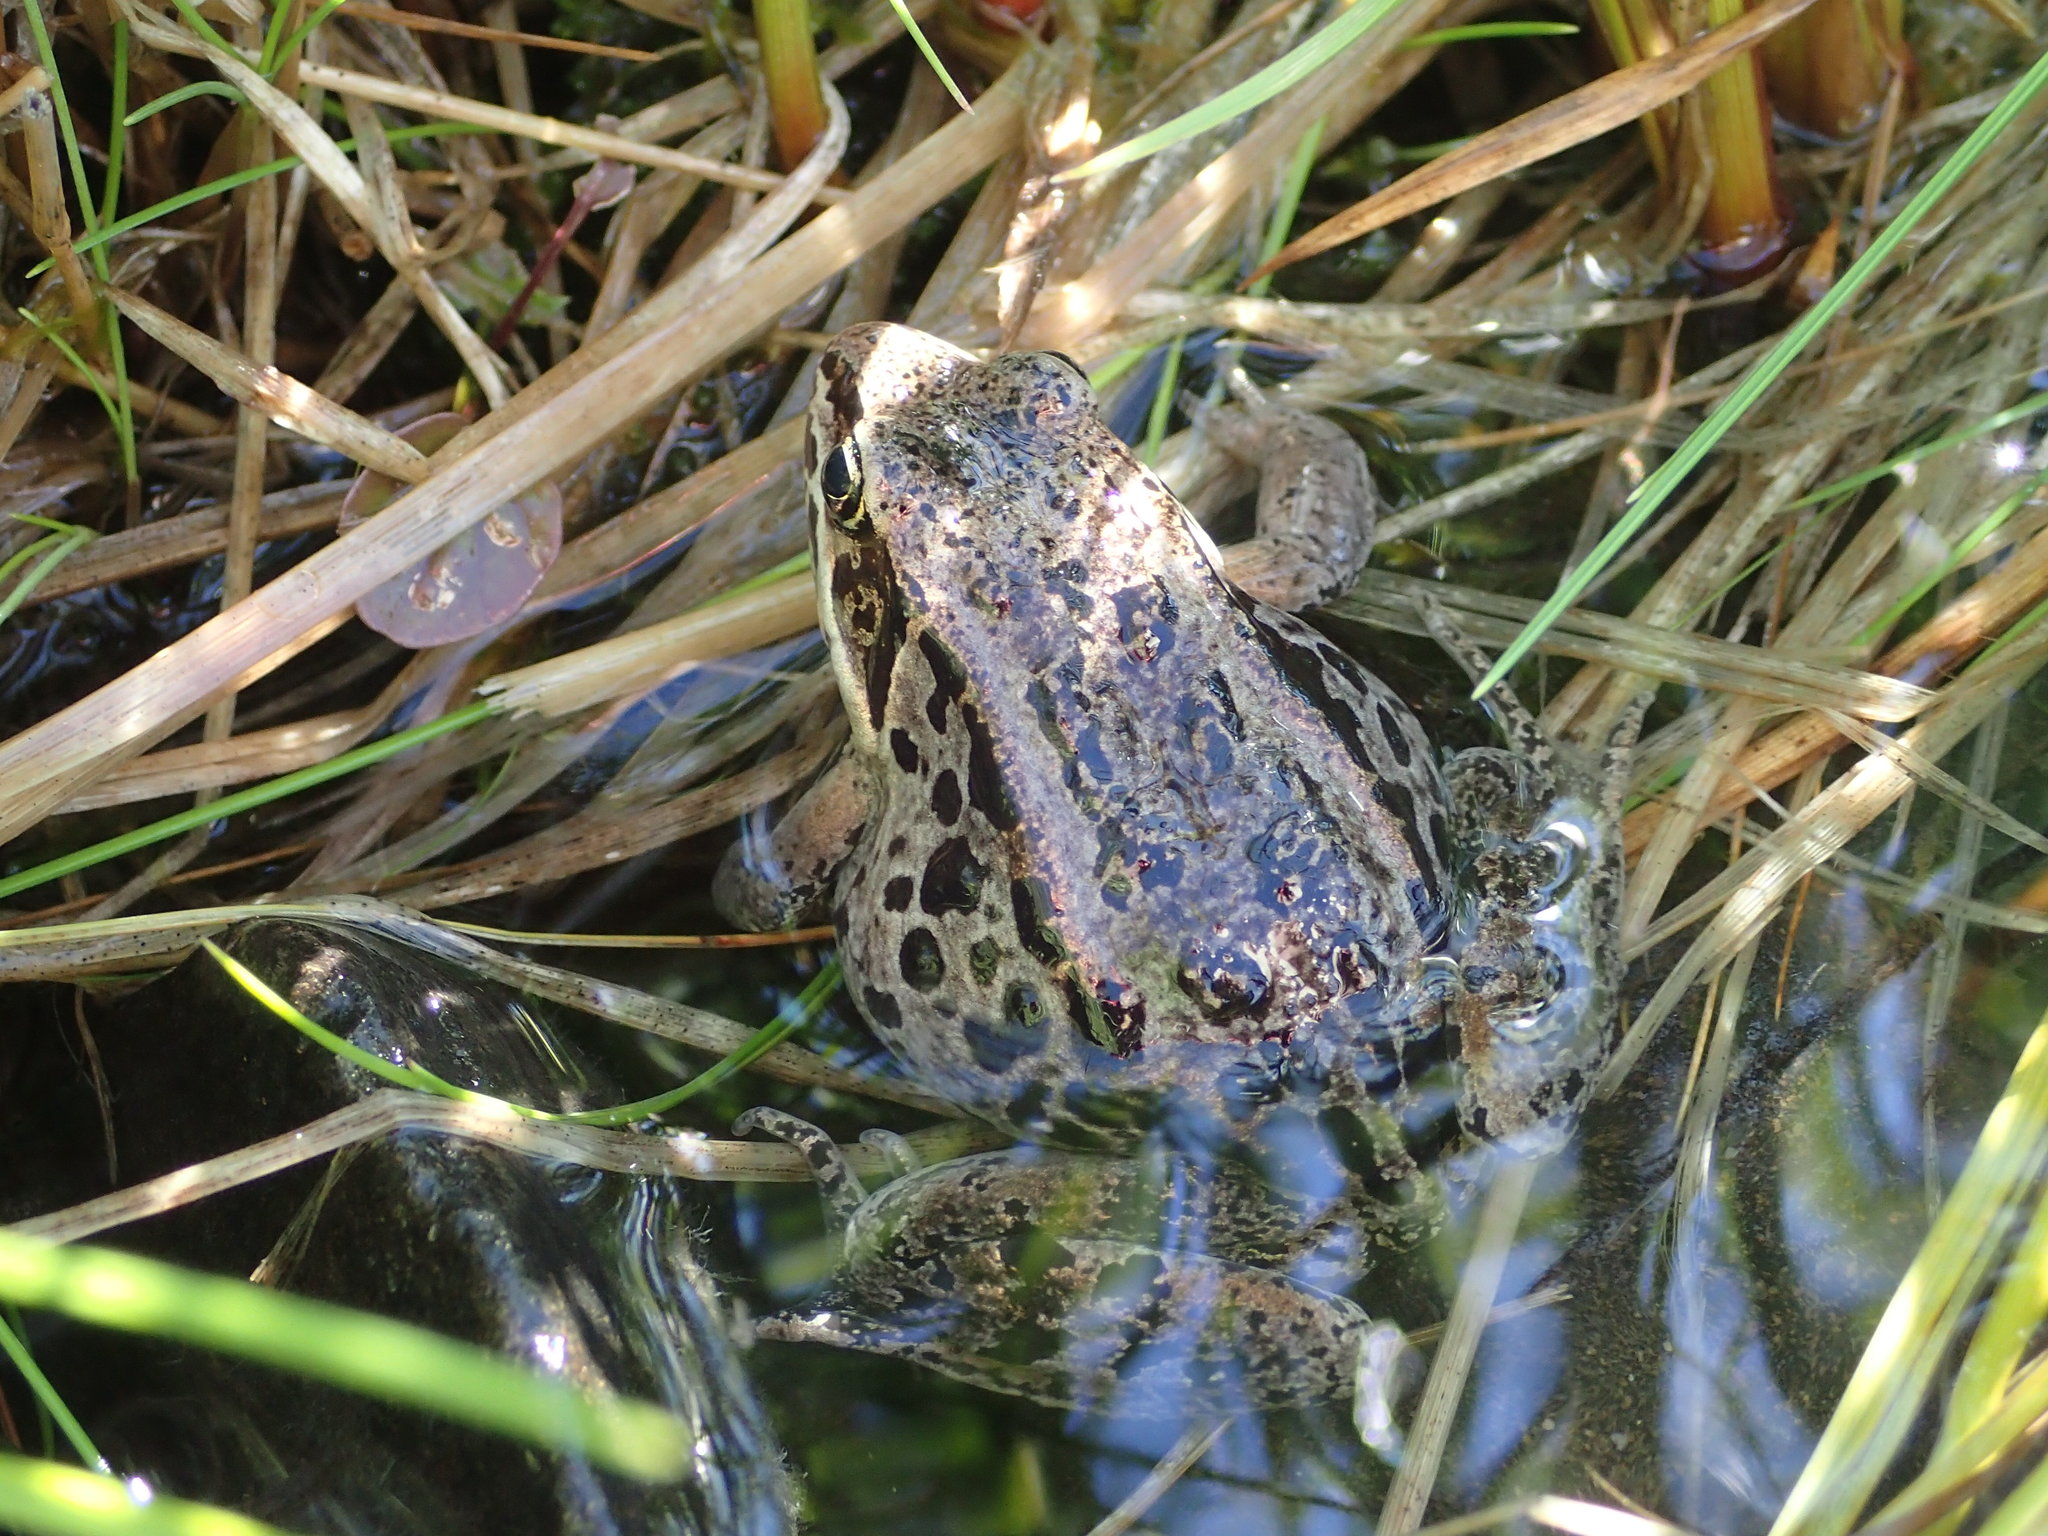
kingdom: Animalia
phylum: Chordata
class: Amphibia
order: Anura
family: Ranidae
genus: Lithobates
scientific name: Lithobates sylvaticus
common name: Wood frog
